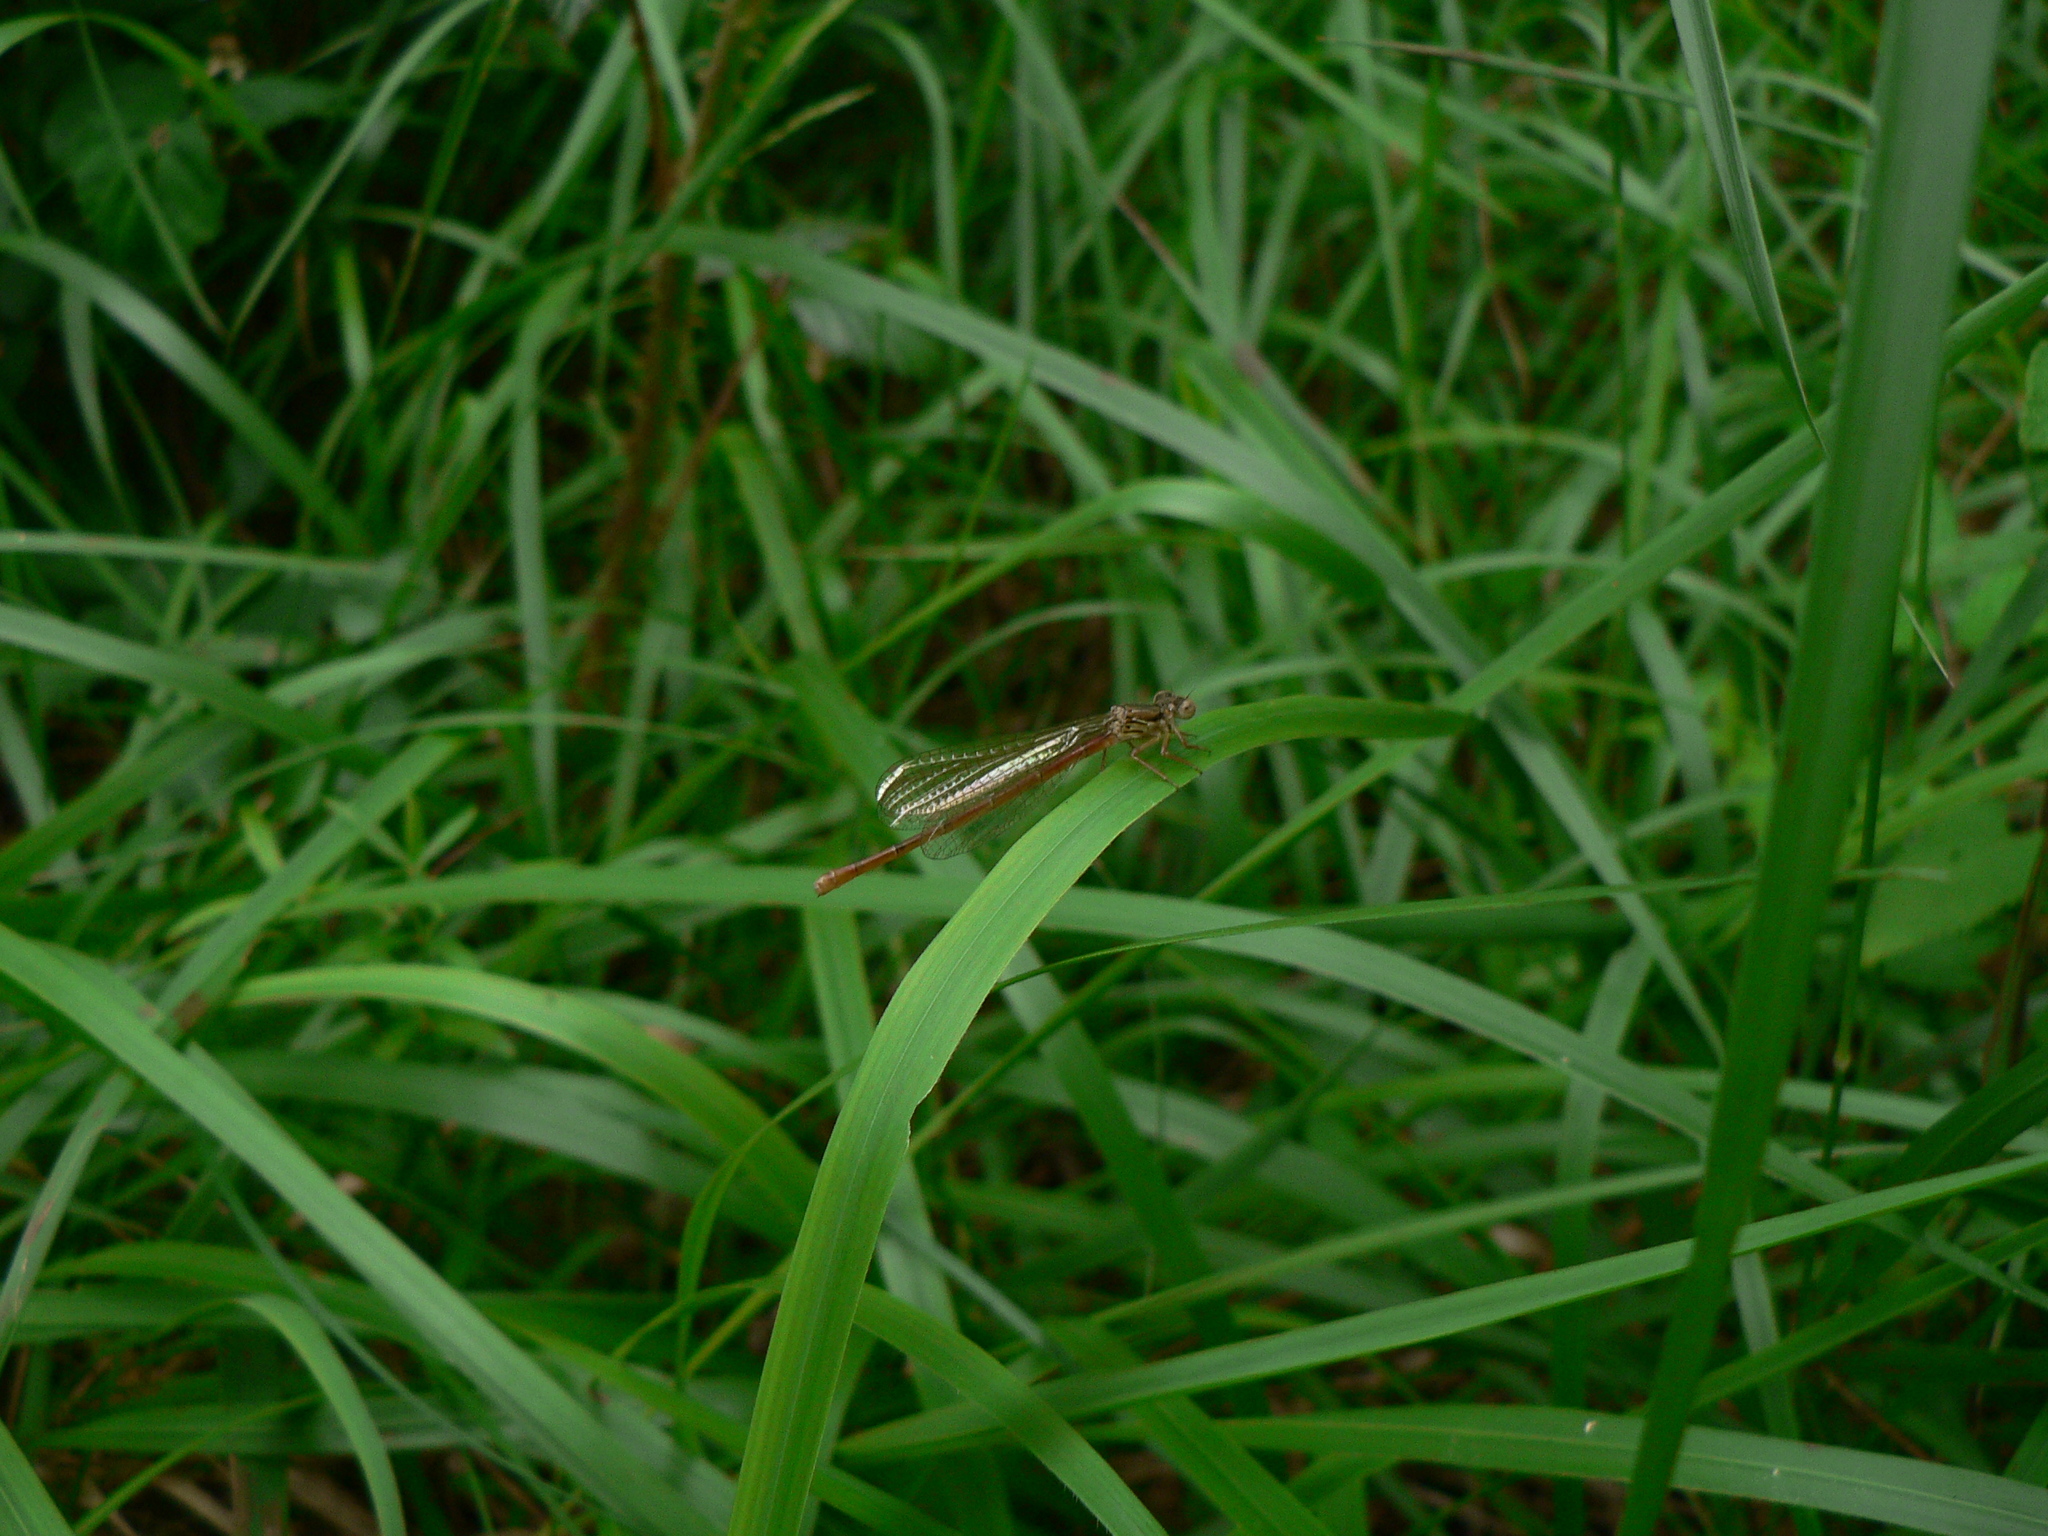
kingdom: Animalia
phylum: Arthropoda
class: Insecta
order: Odonata
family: Coenagrionidae
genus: Ceriagrion
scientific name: Ceriagrion tenellum
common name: Small red damselfly
